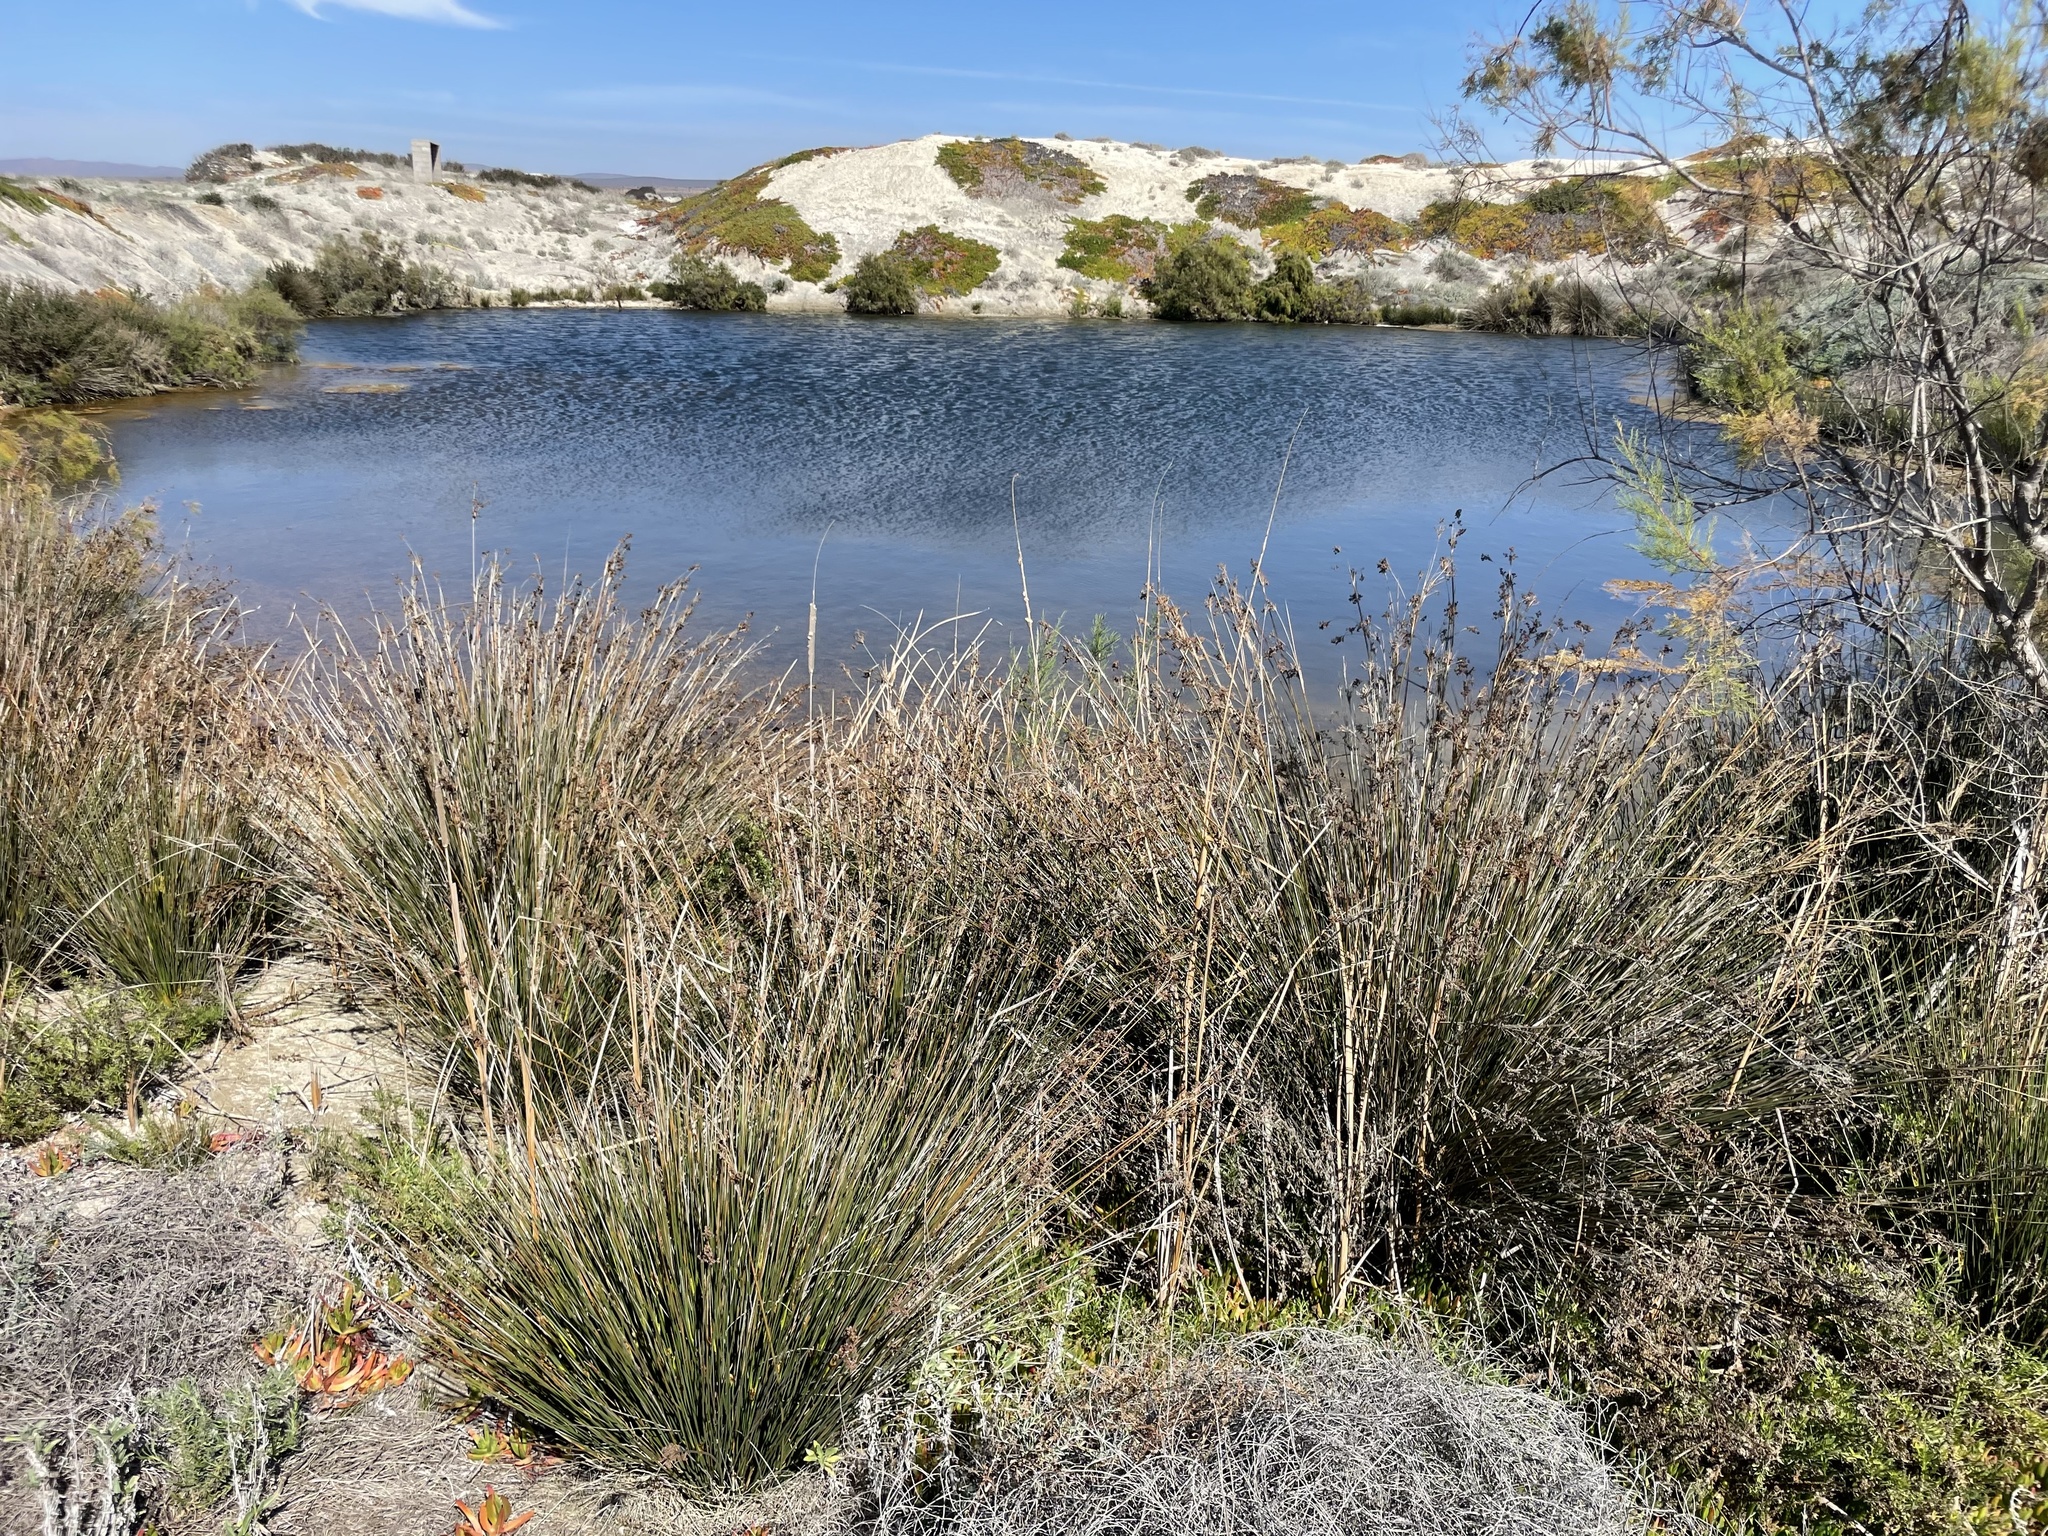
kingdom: Plantae
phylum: Tracheophyta
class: Liliopsida
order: Poales
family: Juncaceae
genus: Juncus
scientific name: Juncus acutus
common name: Sharp rush
